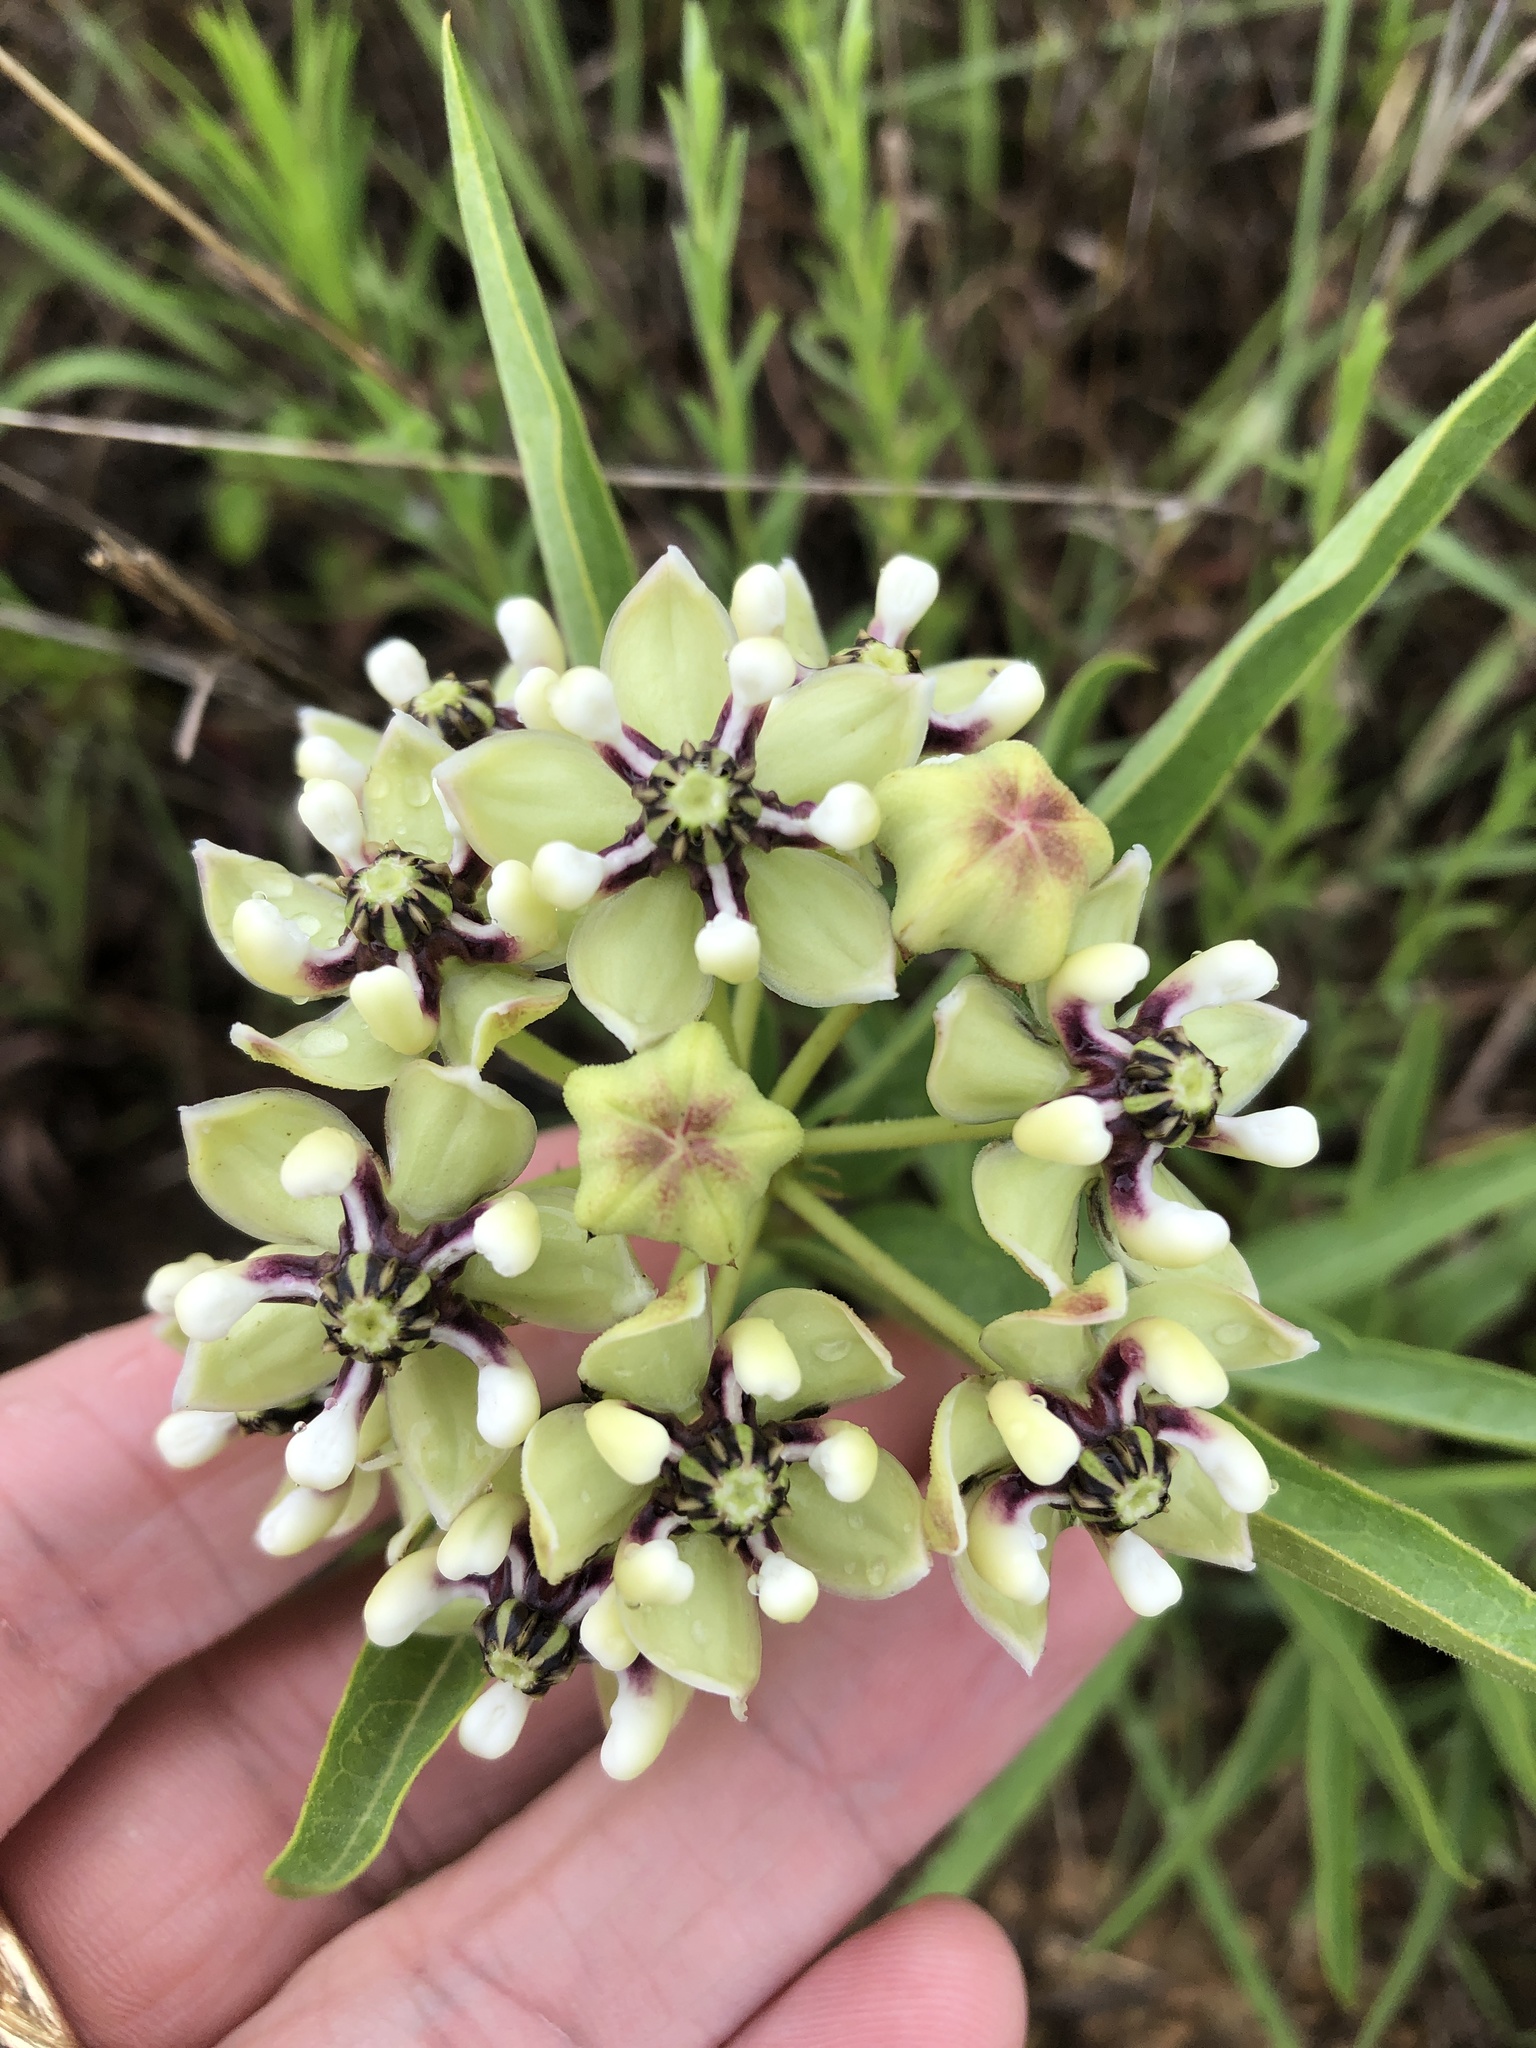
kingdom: Plantae
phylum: Tracheophyta
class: Magnoliopsida
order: Gentianales
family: Apocynaceae
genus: Asclepias
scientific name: Asclepias asperula
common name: Antelope horns
